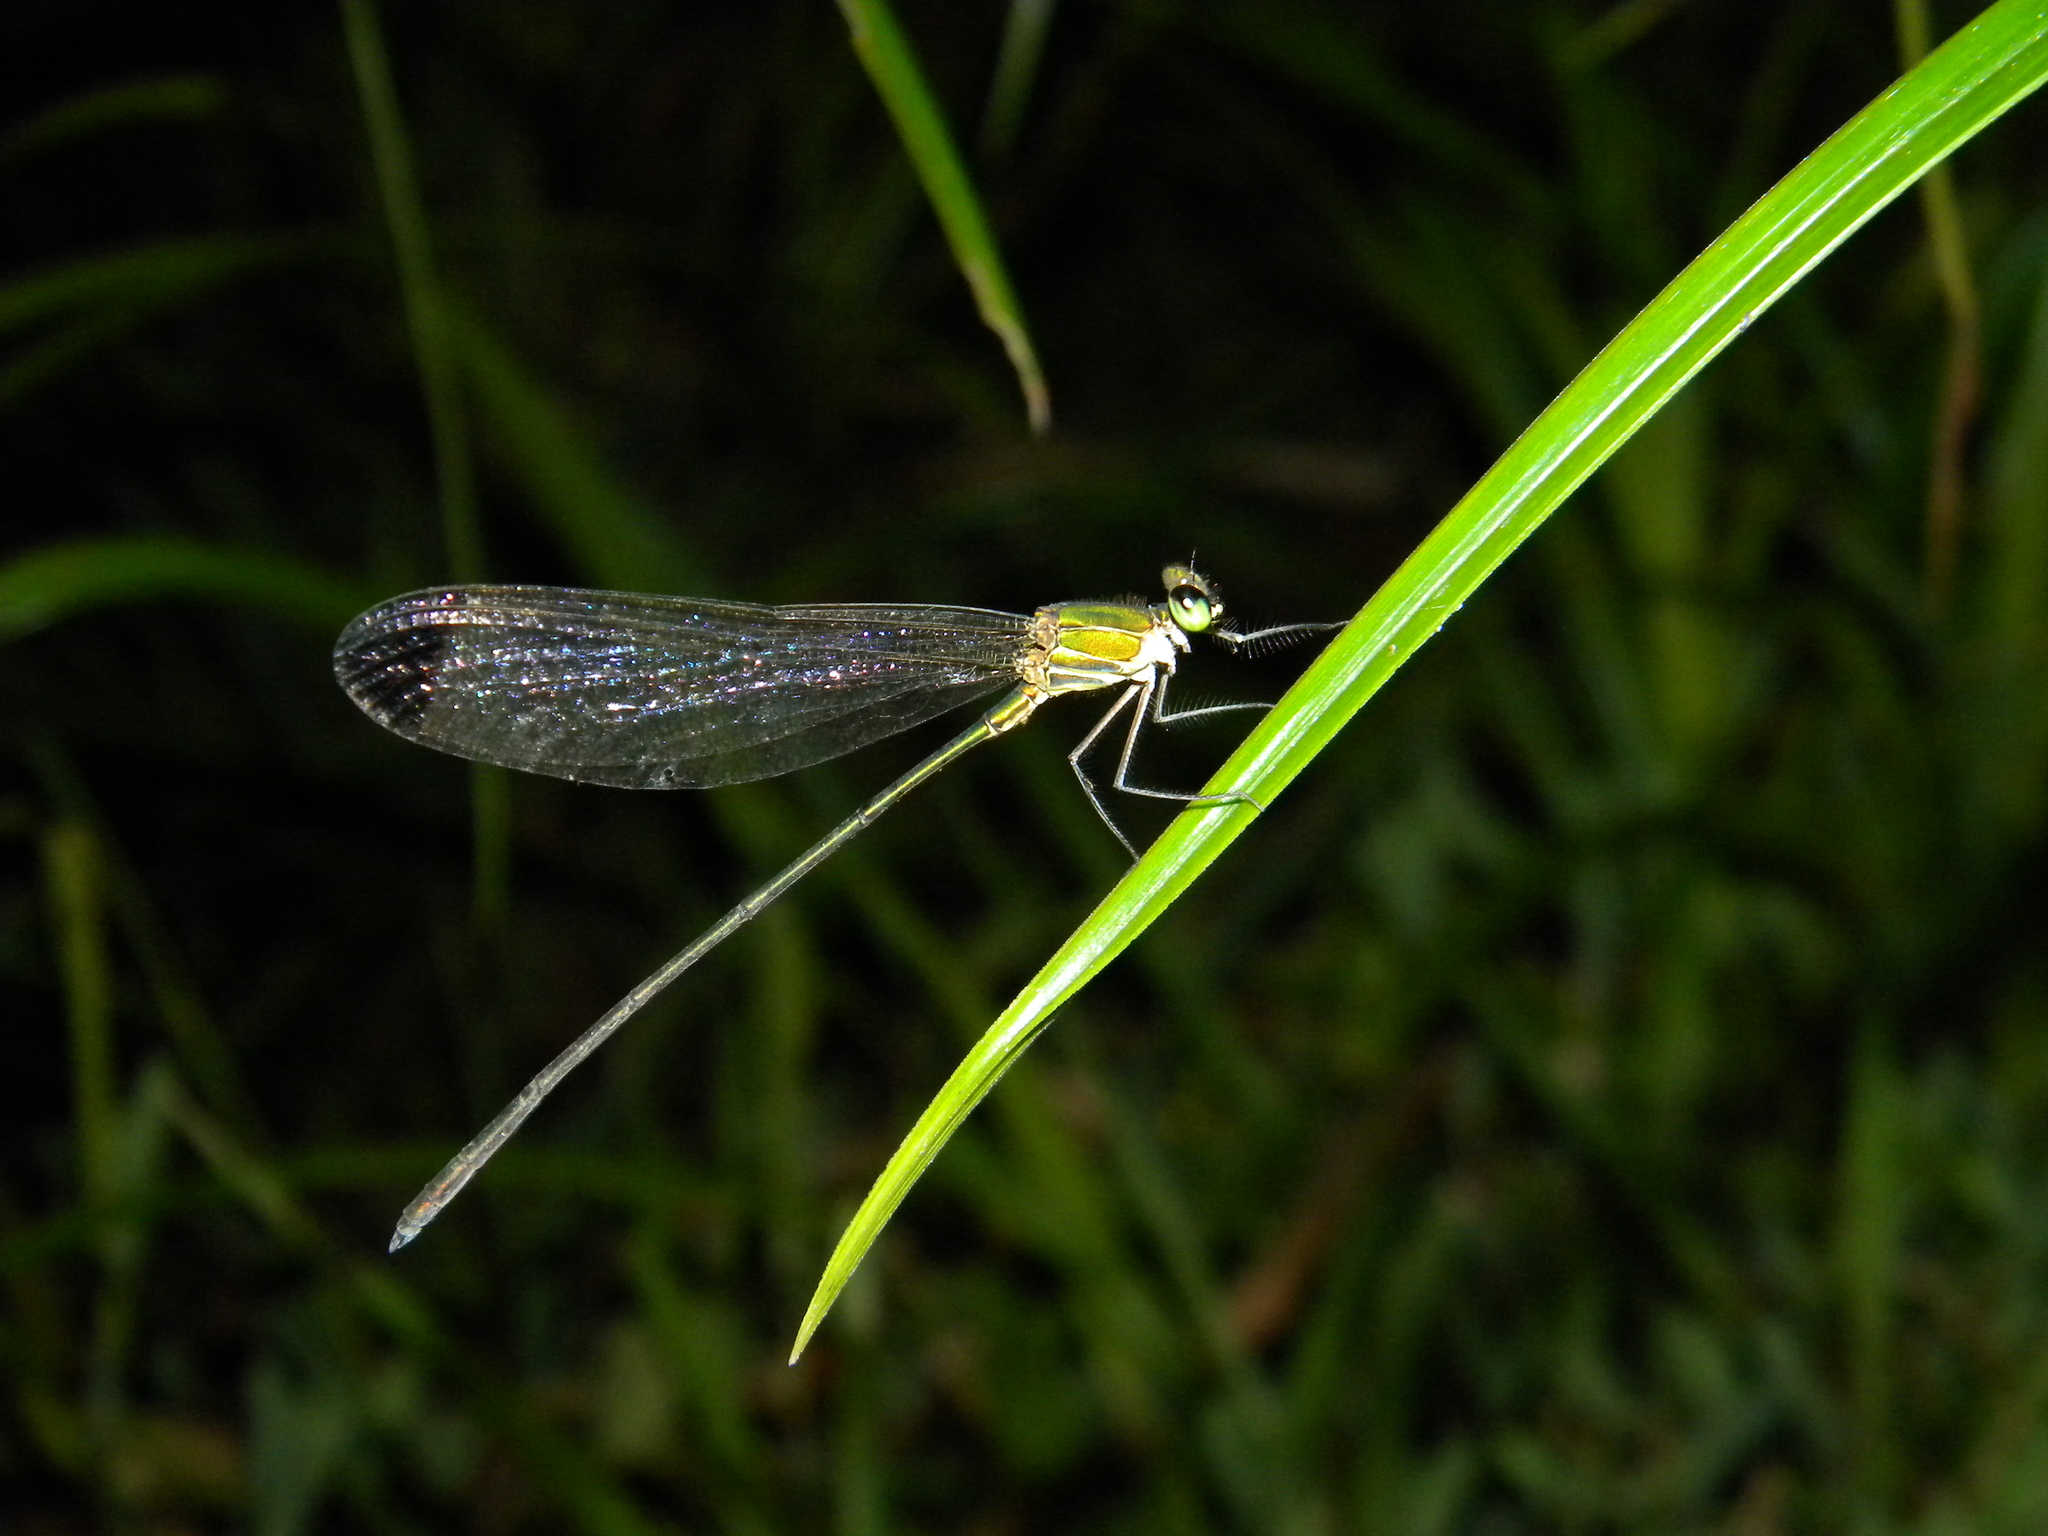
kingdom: Animalia
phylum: Arthropoda
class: Insecta
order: Odonata
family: Calopterygidae
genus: Vestalis
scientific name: Vestalis apicalis
